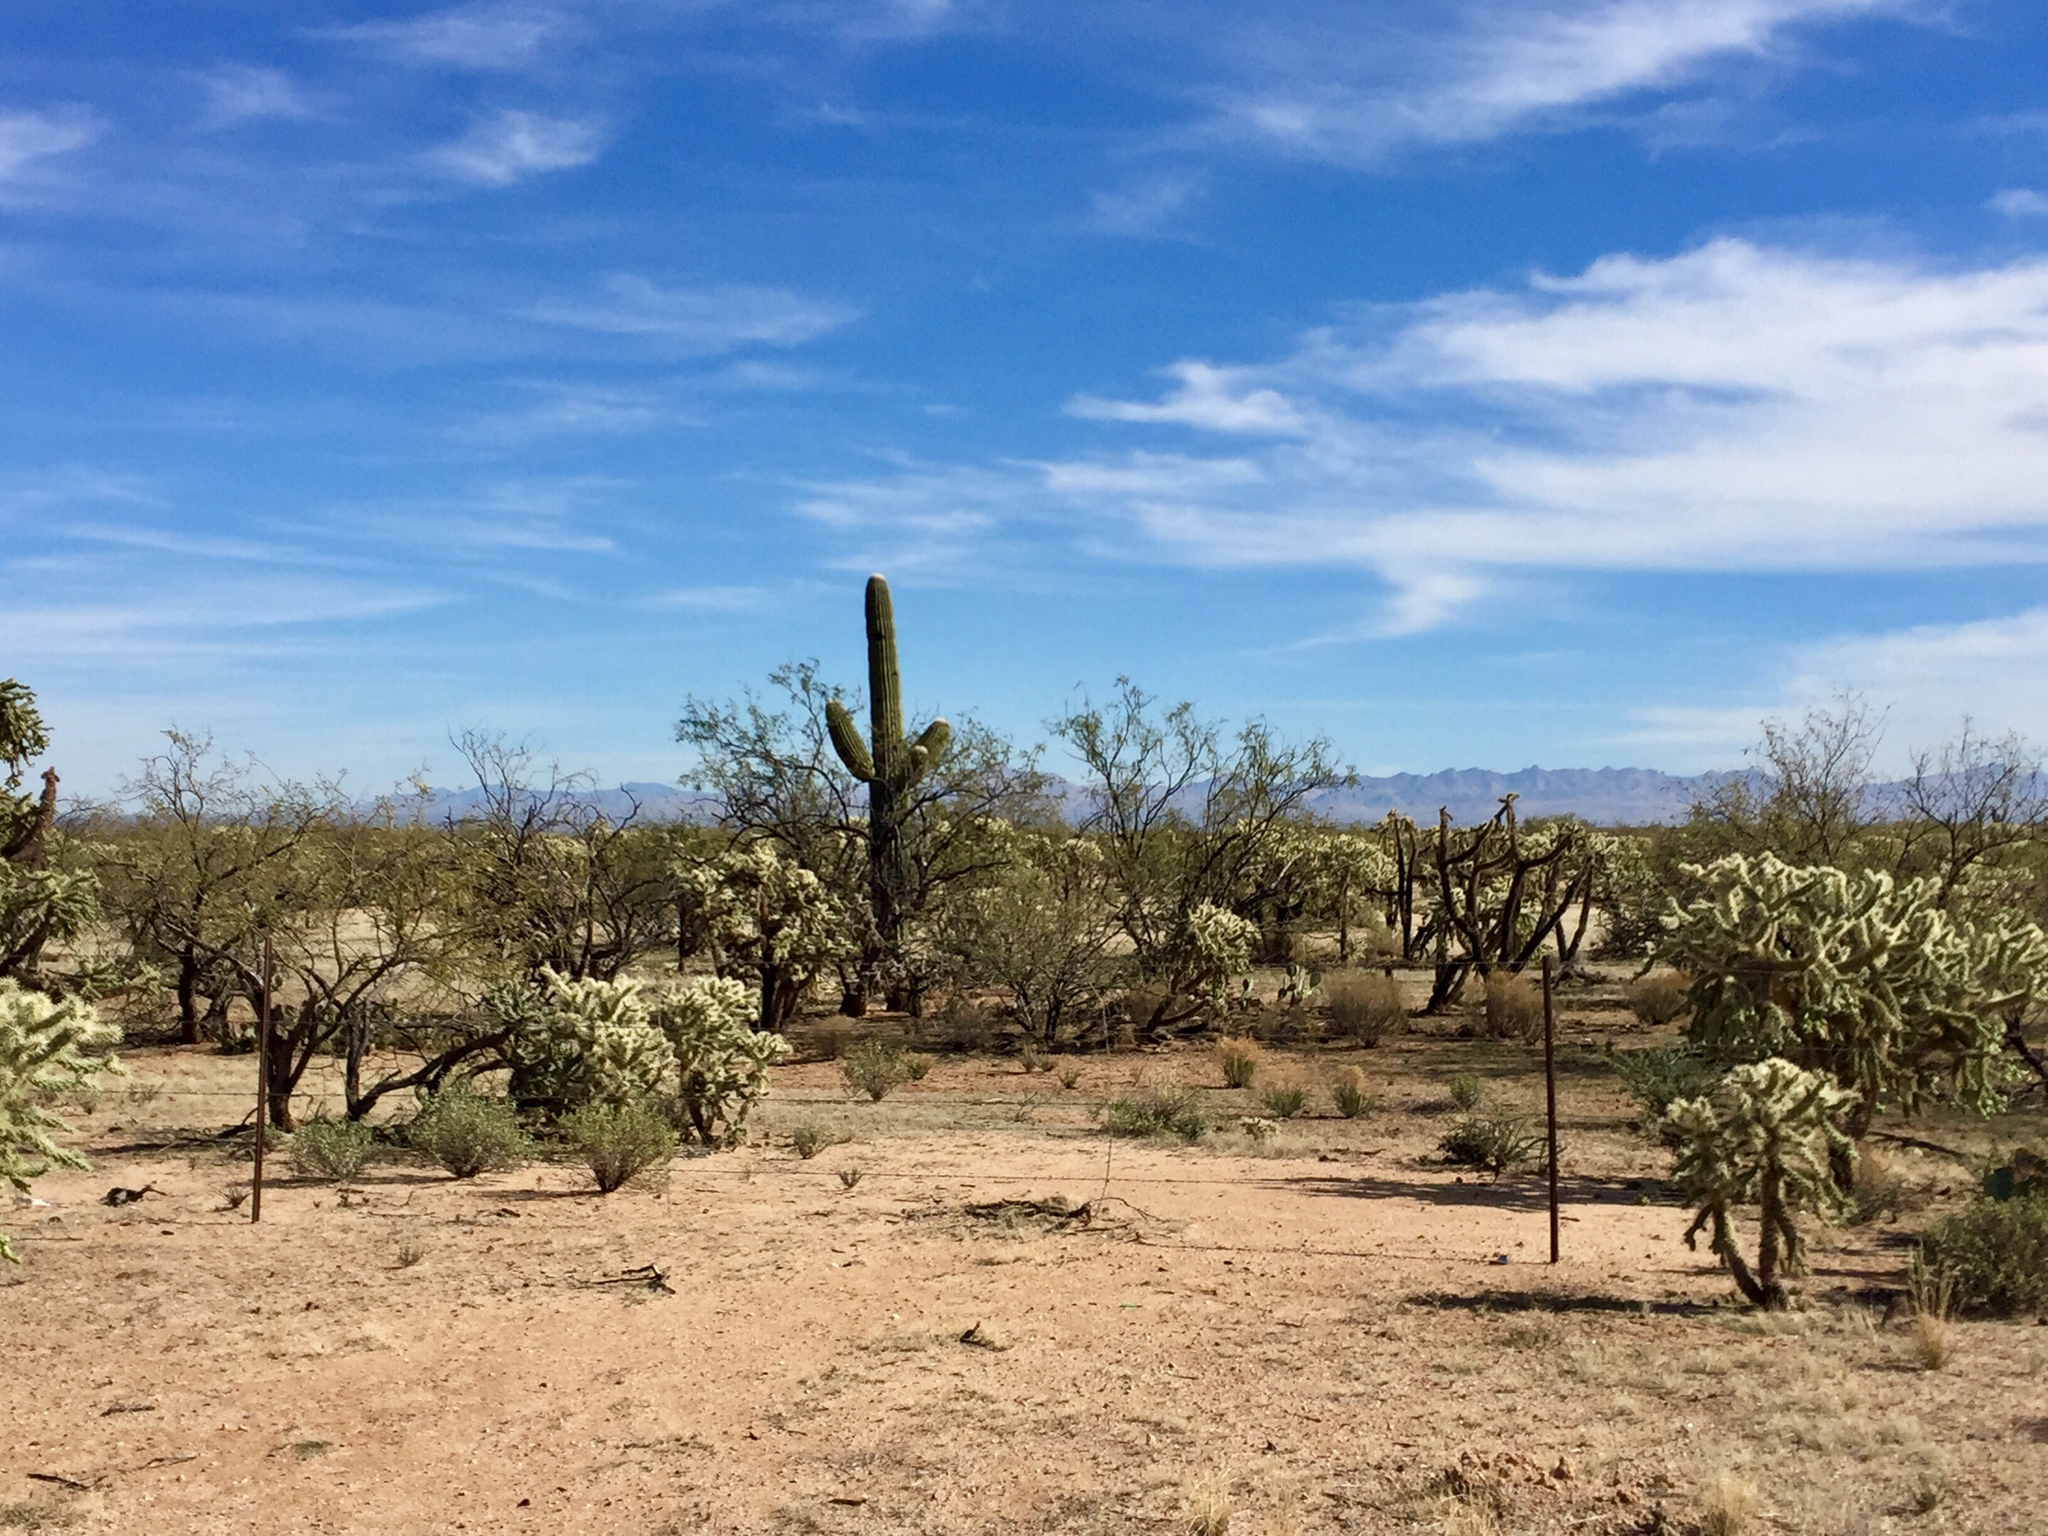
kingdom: Plantae
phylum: Tracheophyta
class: Magnoliopsida
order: Caryophyllales
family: Cactaceae
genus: Carnegiea
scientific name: Carnegiea gigantea
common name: Saguaro
